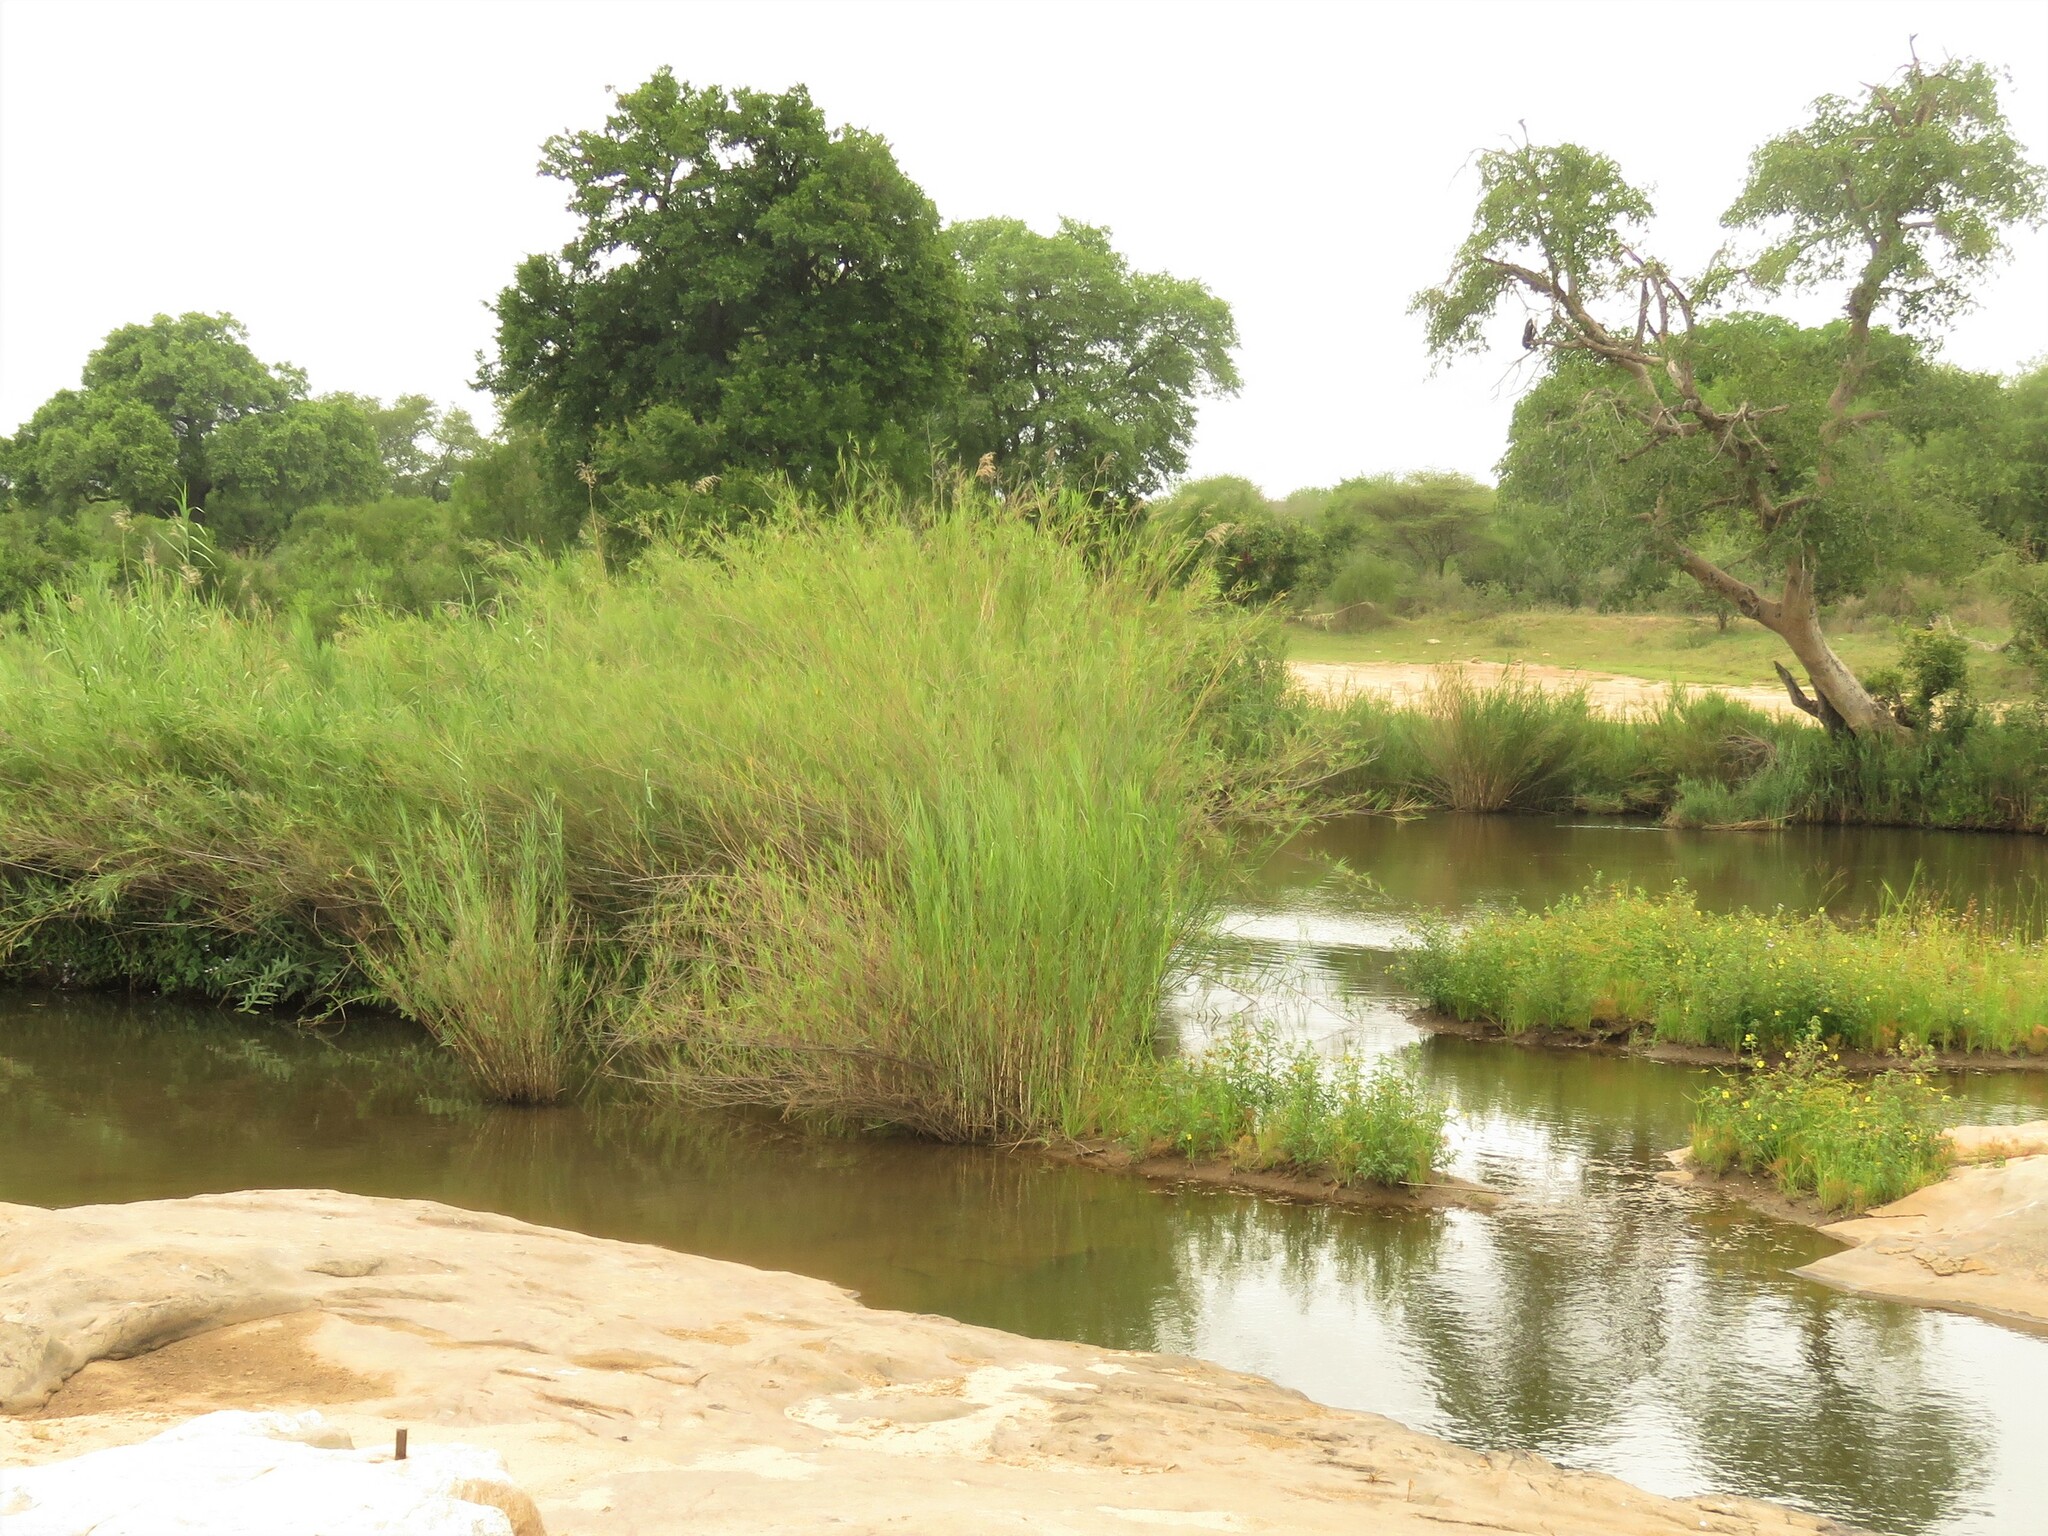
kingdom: Plantae
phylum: Tracheophyta
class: Liliopsida
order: Poales
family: Poaceae
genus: Phragmites
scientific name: Phragmites mauritianus
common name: Reed grass
